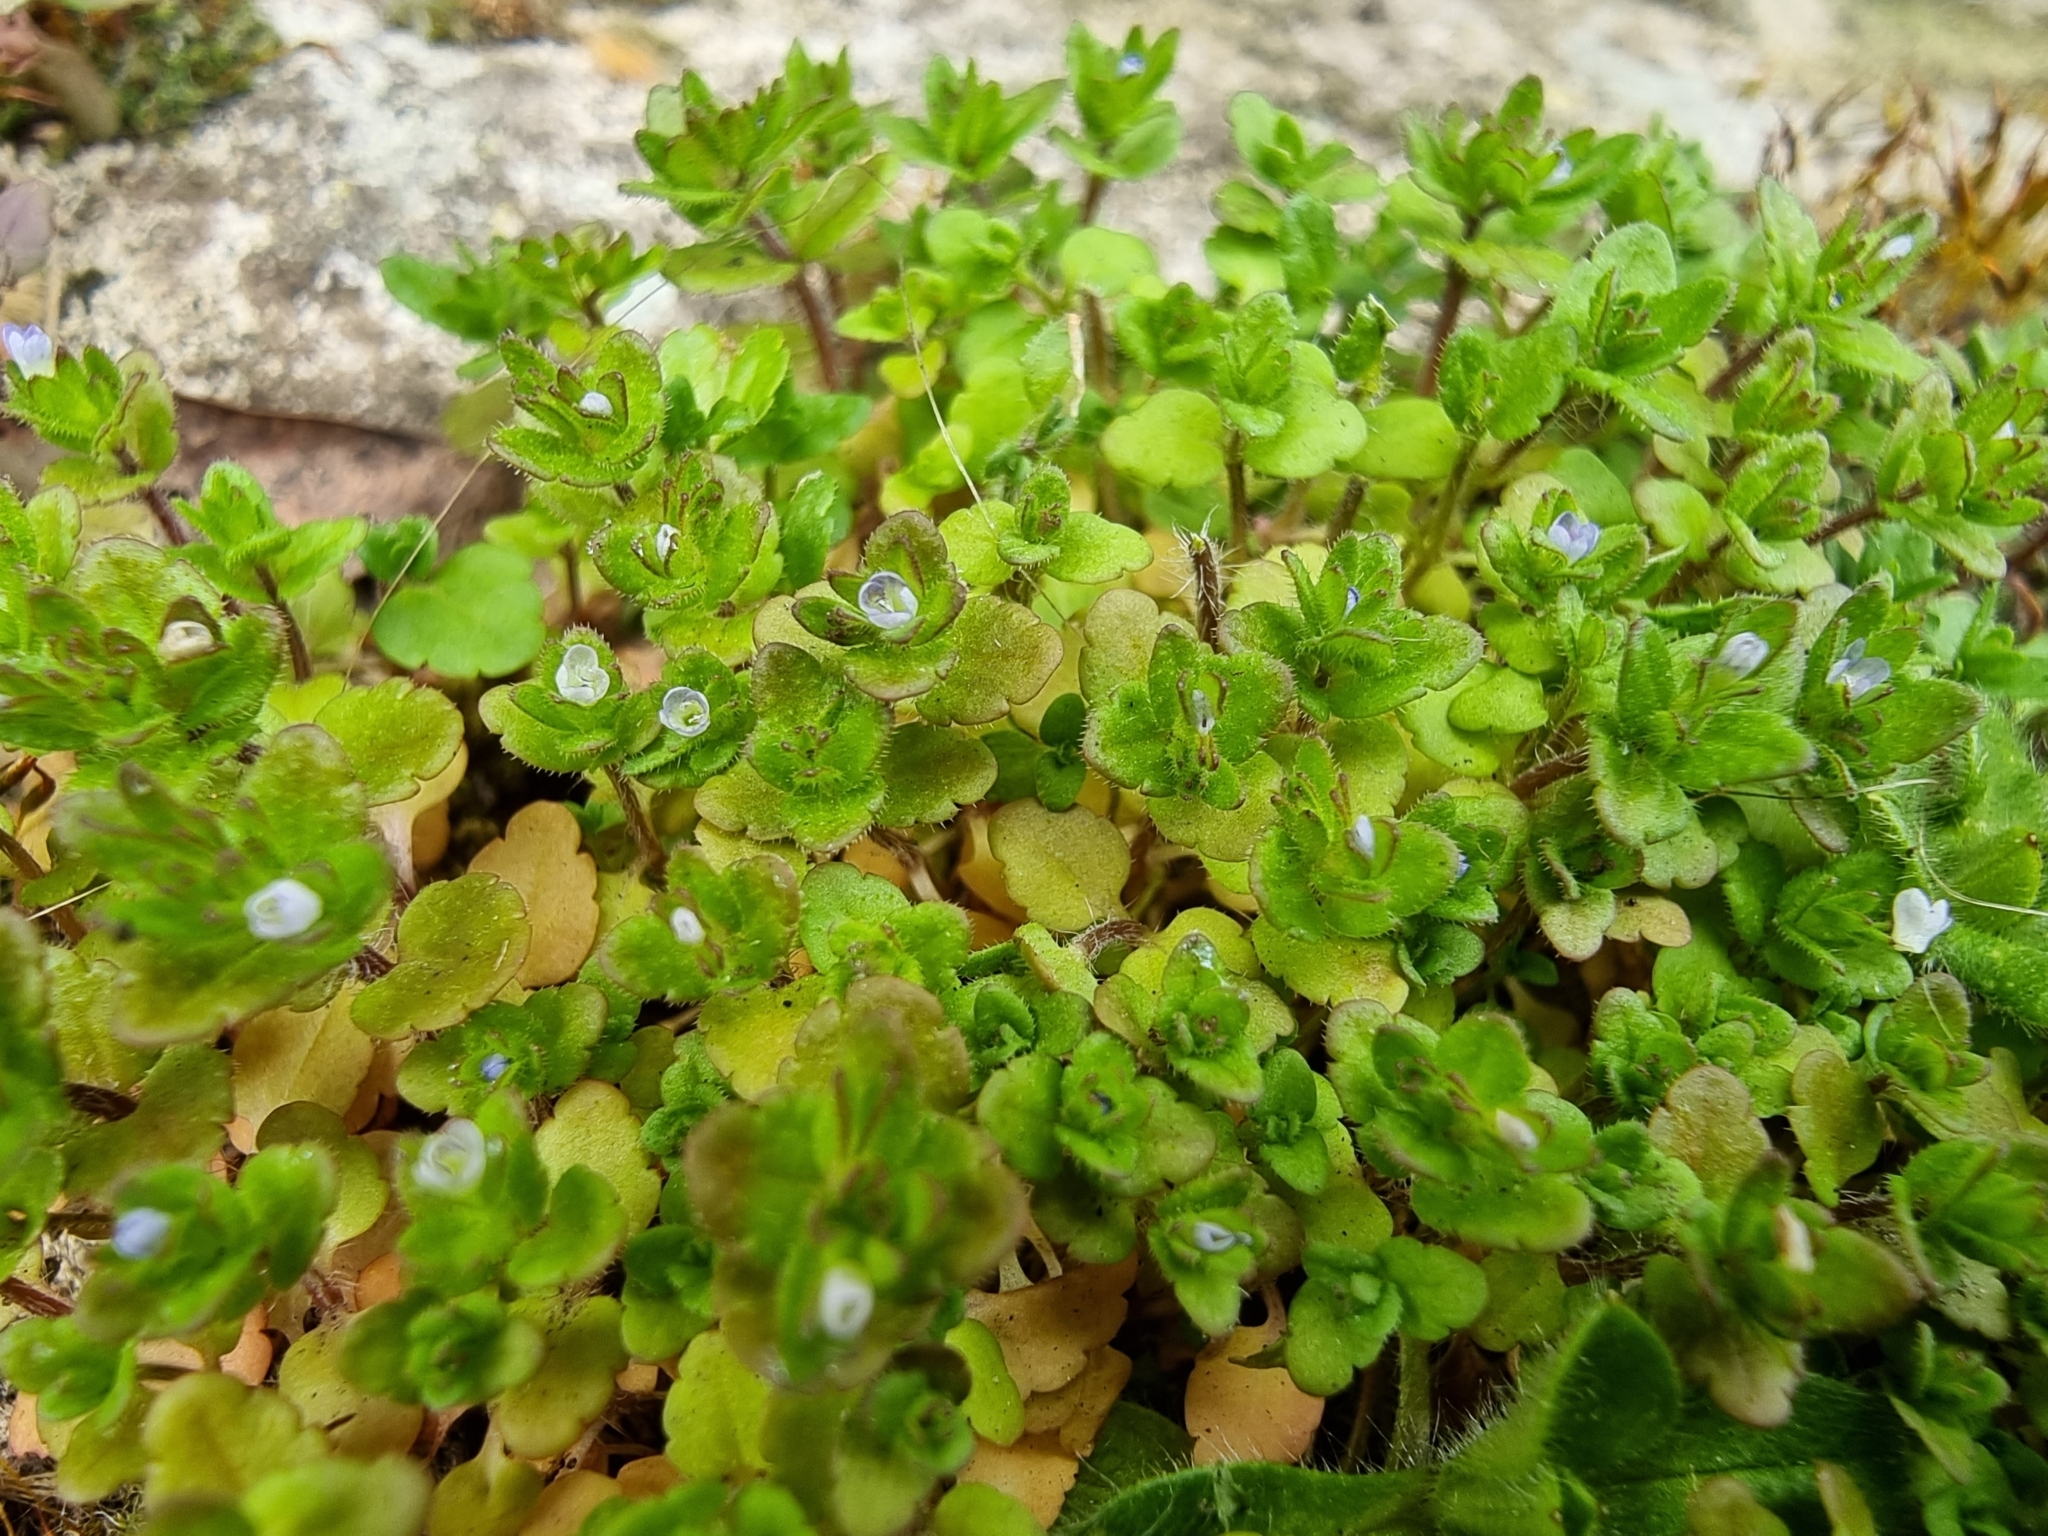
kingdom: Plantae
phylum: Tracheophyta
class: Magnoliopsida
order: Lamiales
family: Plantaginaceae
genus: Veronica
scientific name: Veronica arvensis
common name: Corn speedwell
